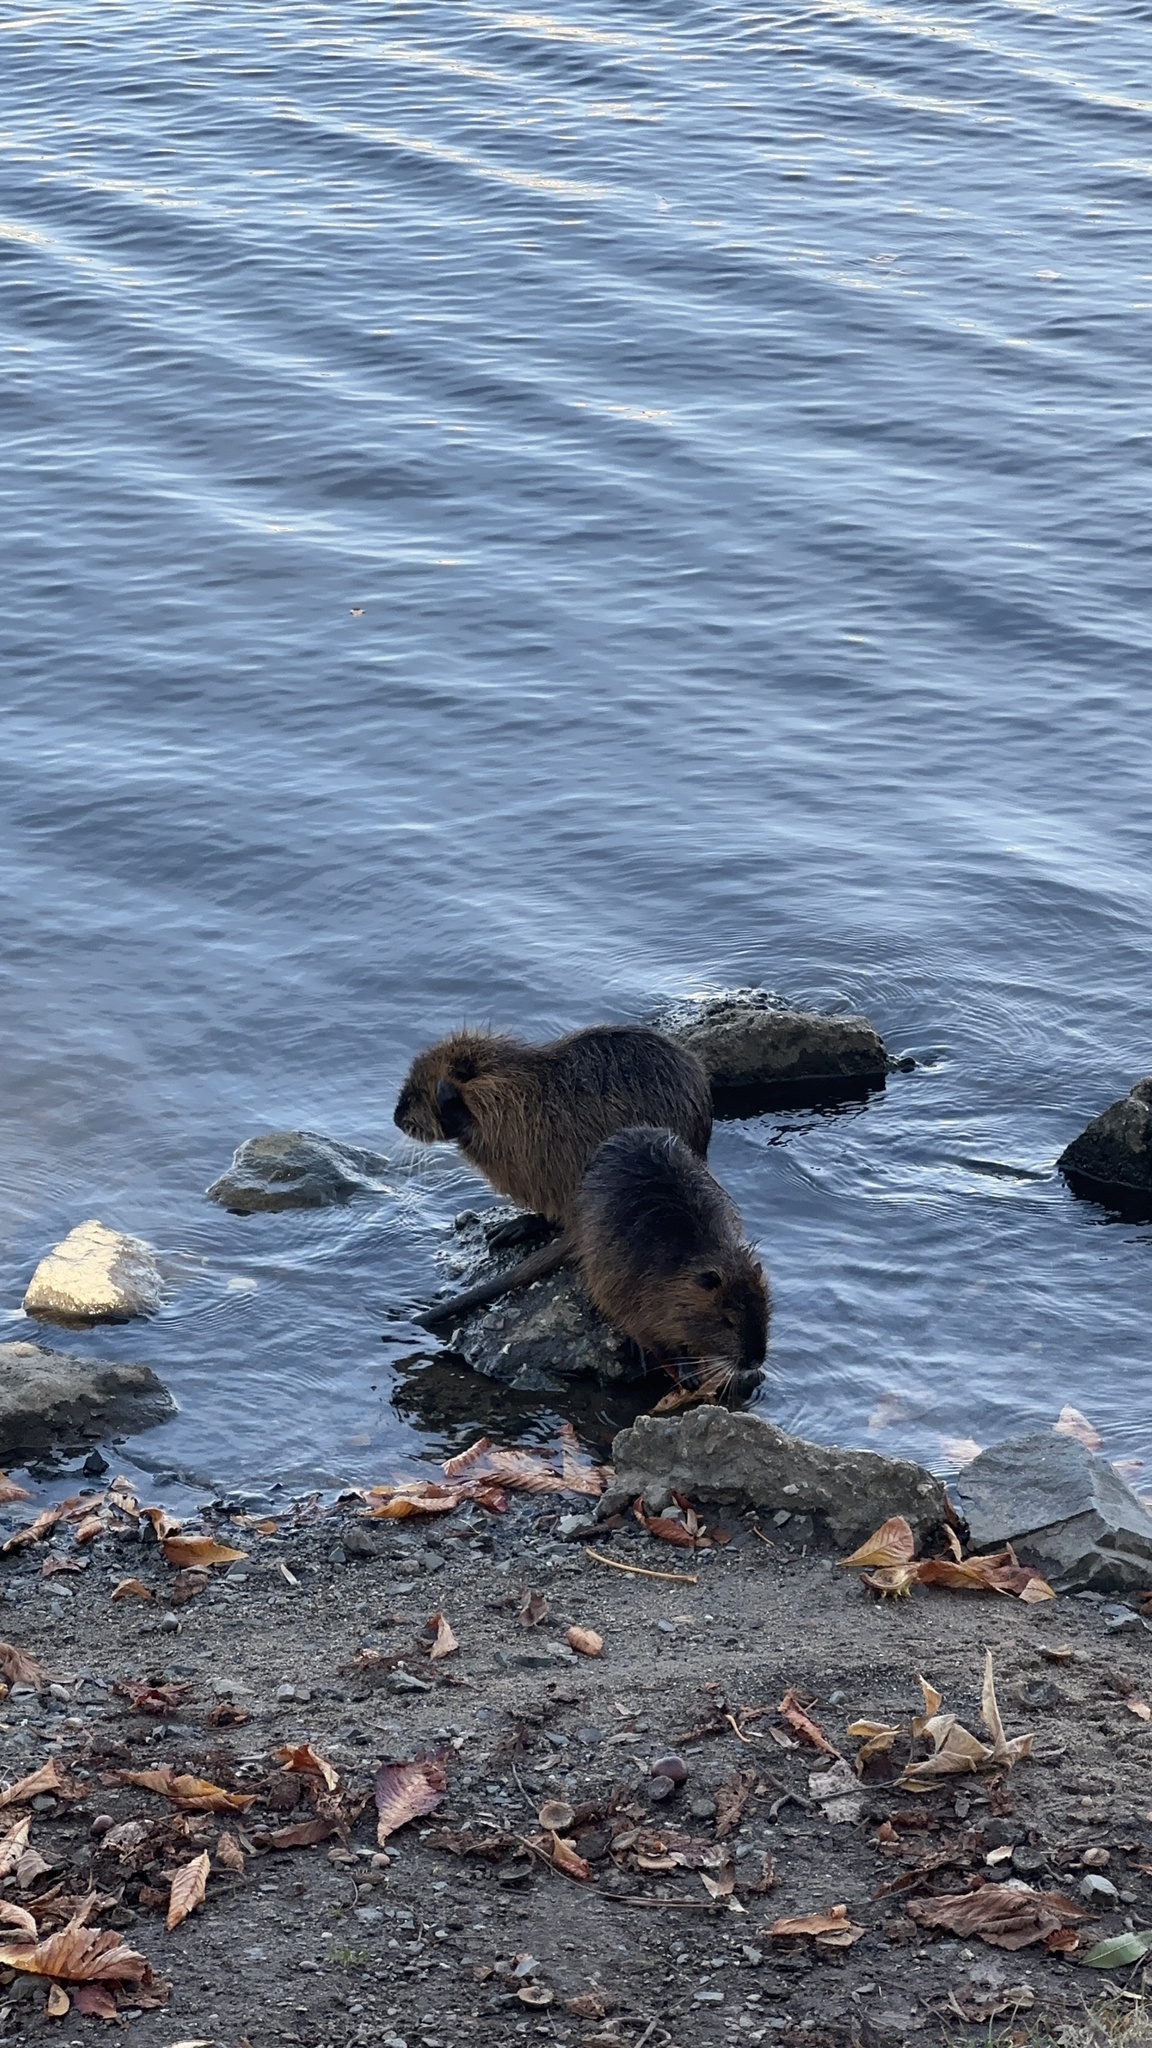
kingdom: Animalia
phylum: Chordata
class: Mammalia
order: Rodentia
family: Myocastoridae
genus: Myocastor
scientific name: Myocastor coypus
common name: Coypu
